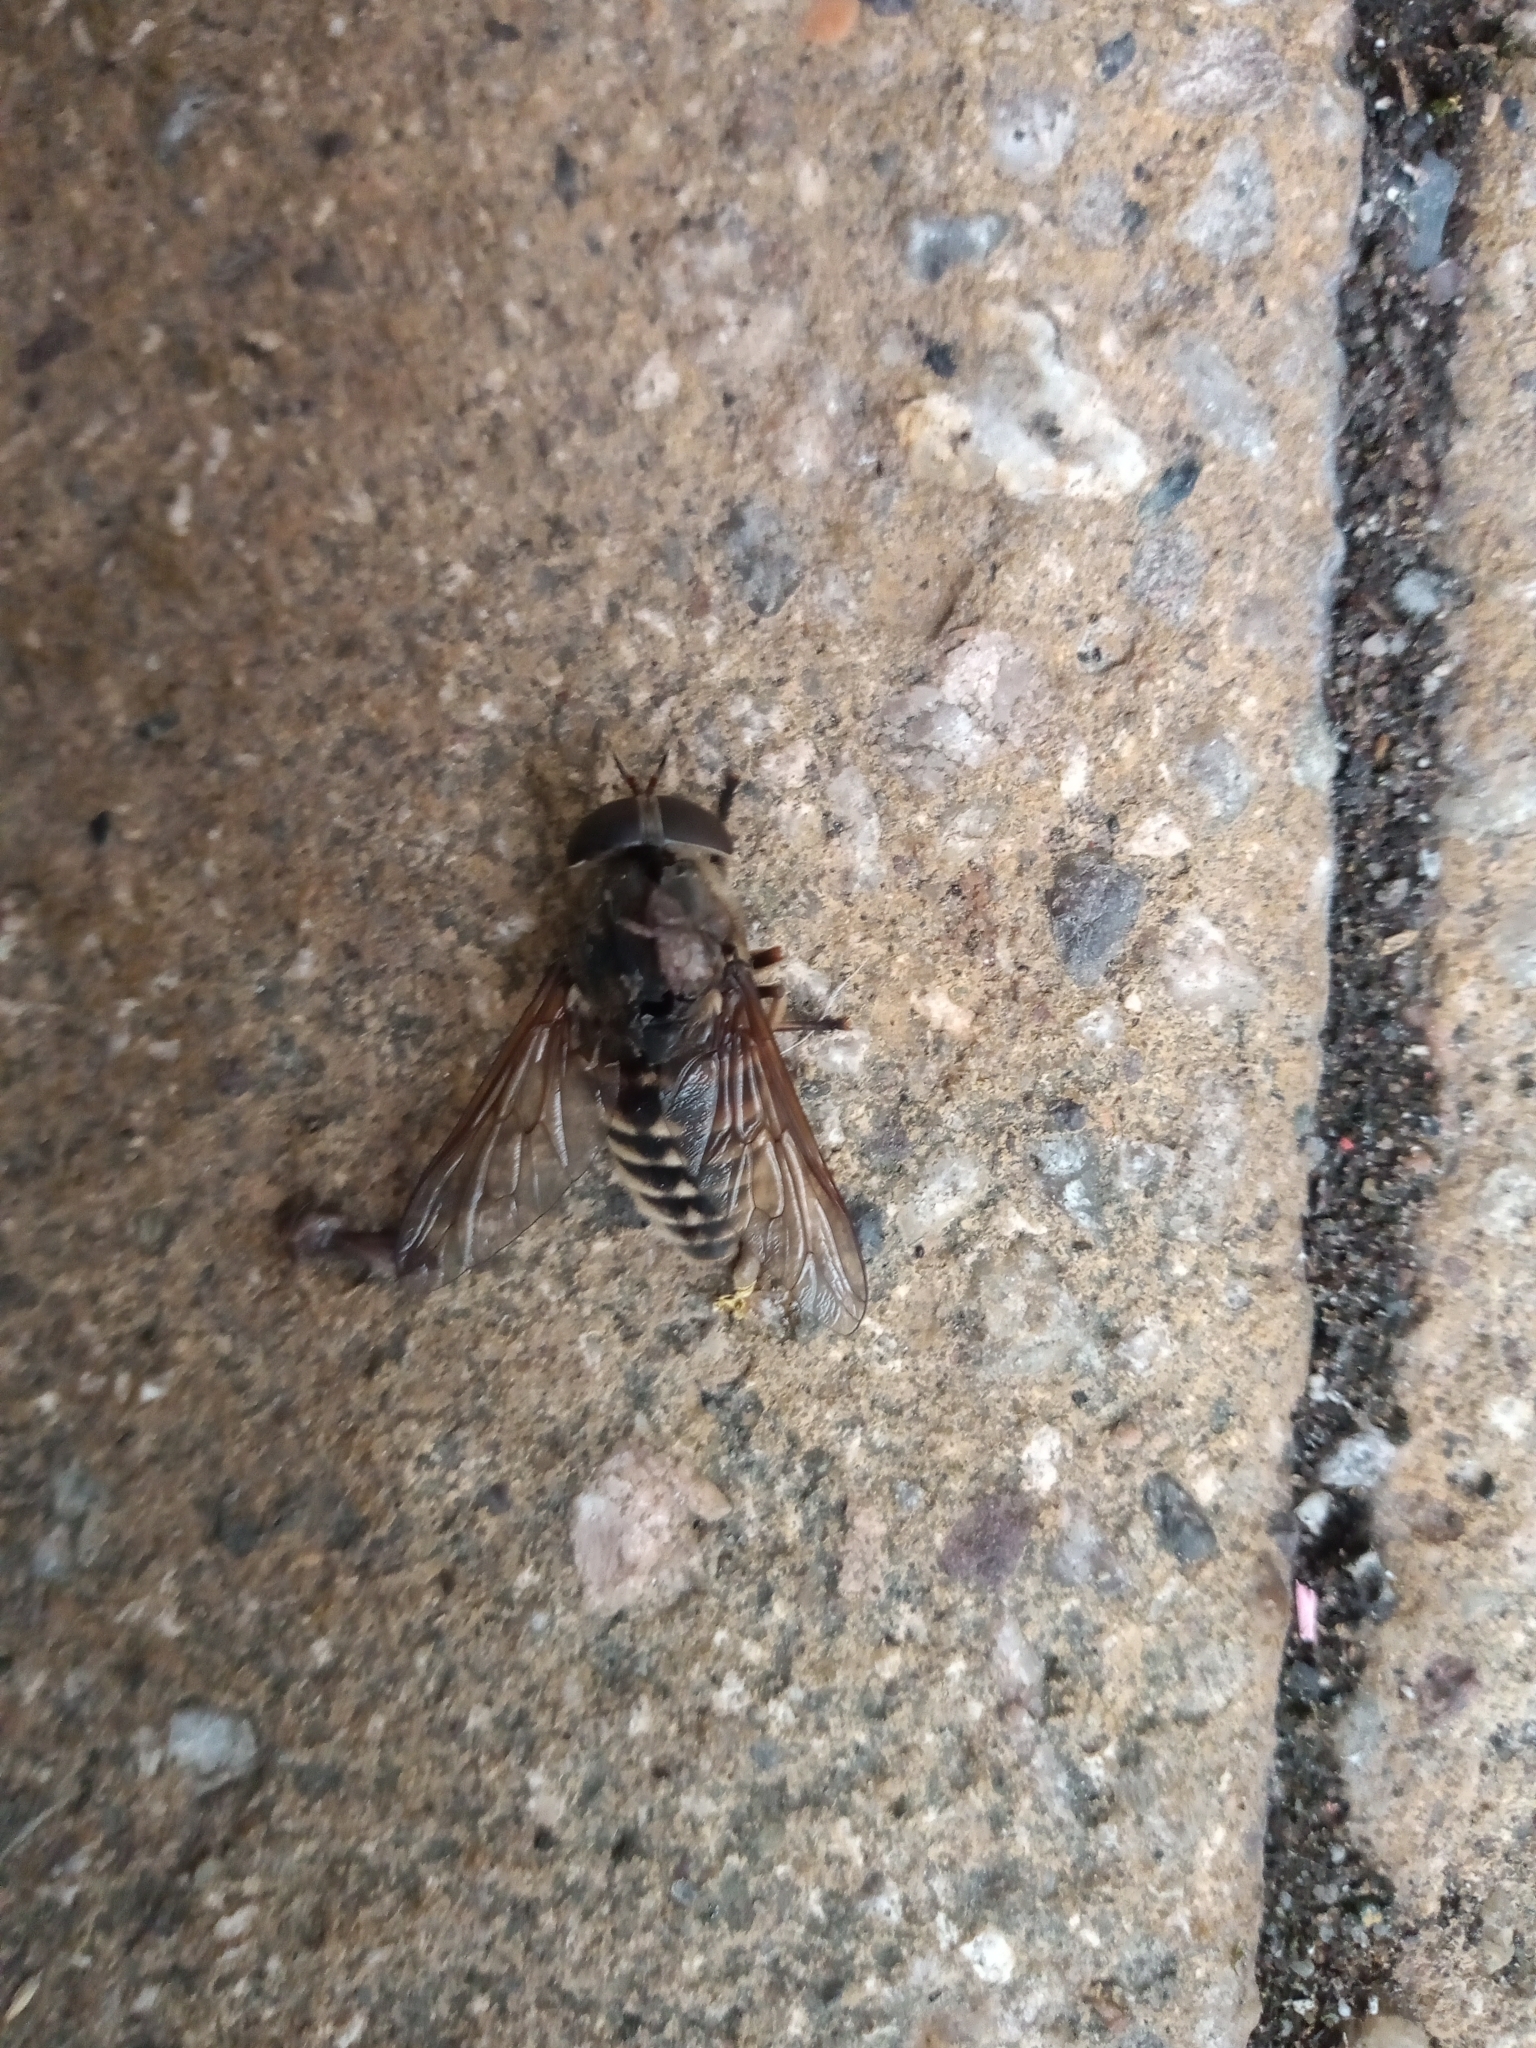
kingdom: Animalia
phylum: Arthropoda
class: Insecta
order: Diptera
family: Tabanidae
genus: Tabanus
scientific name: Tabanus sudeticus
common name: Dark giant horsefly
